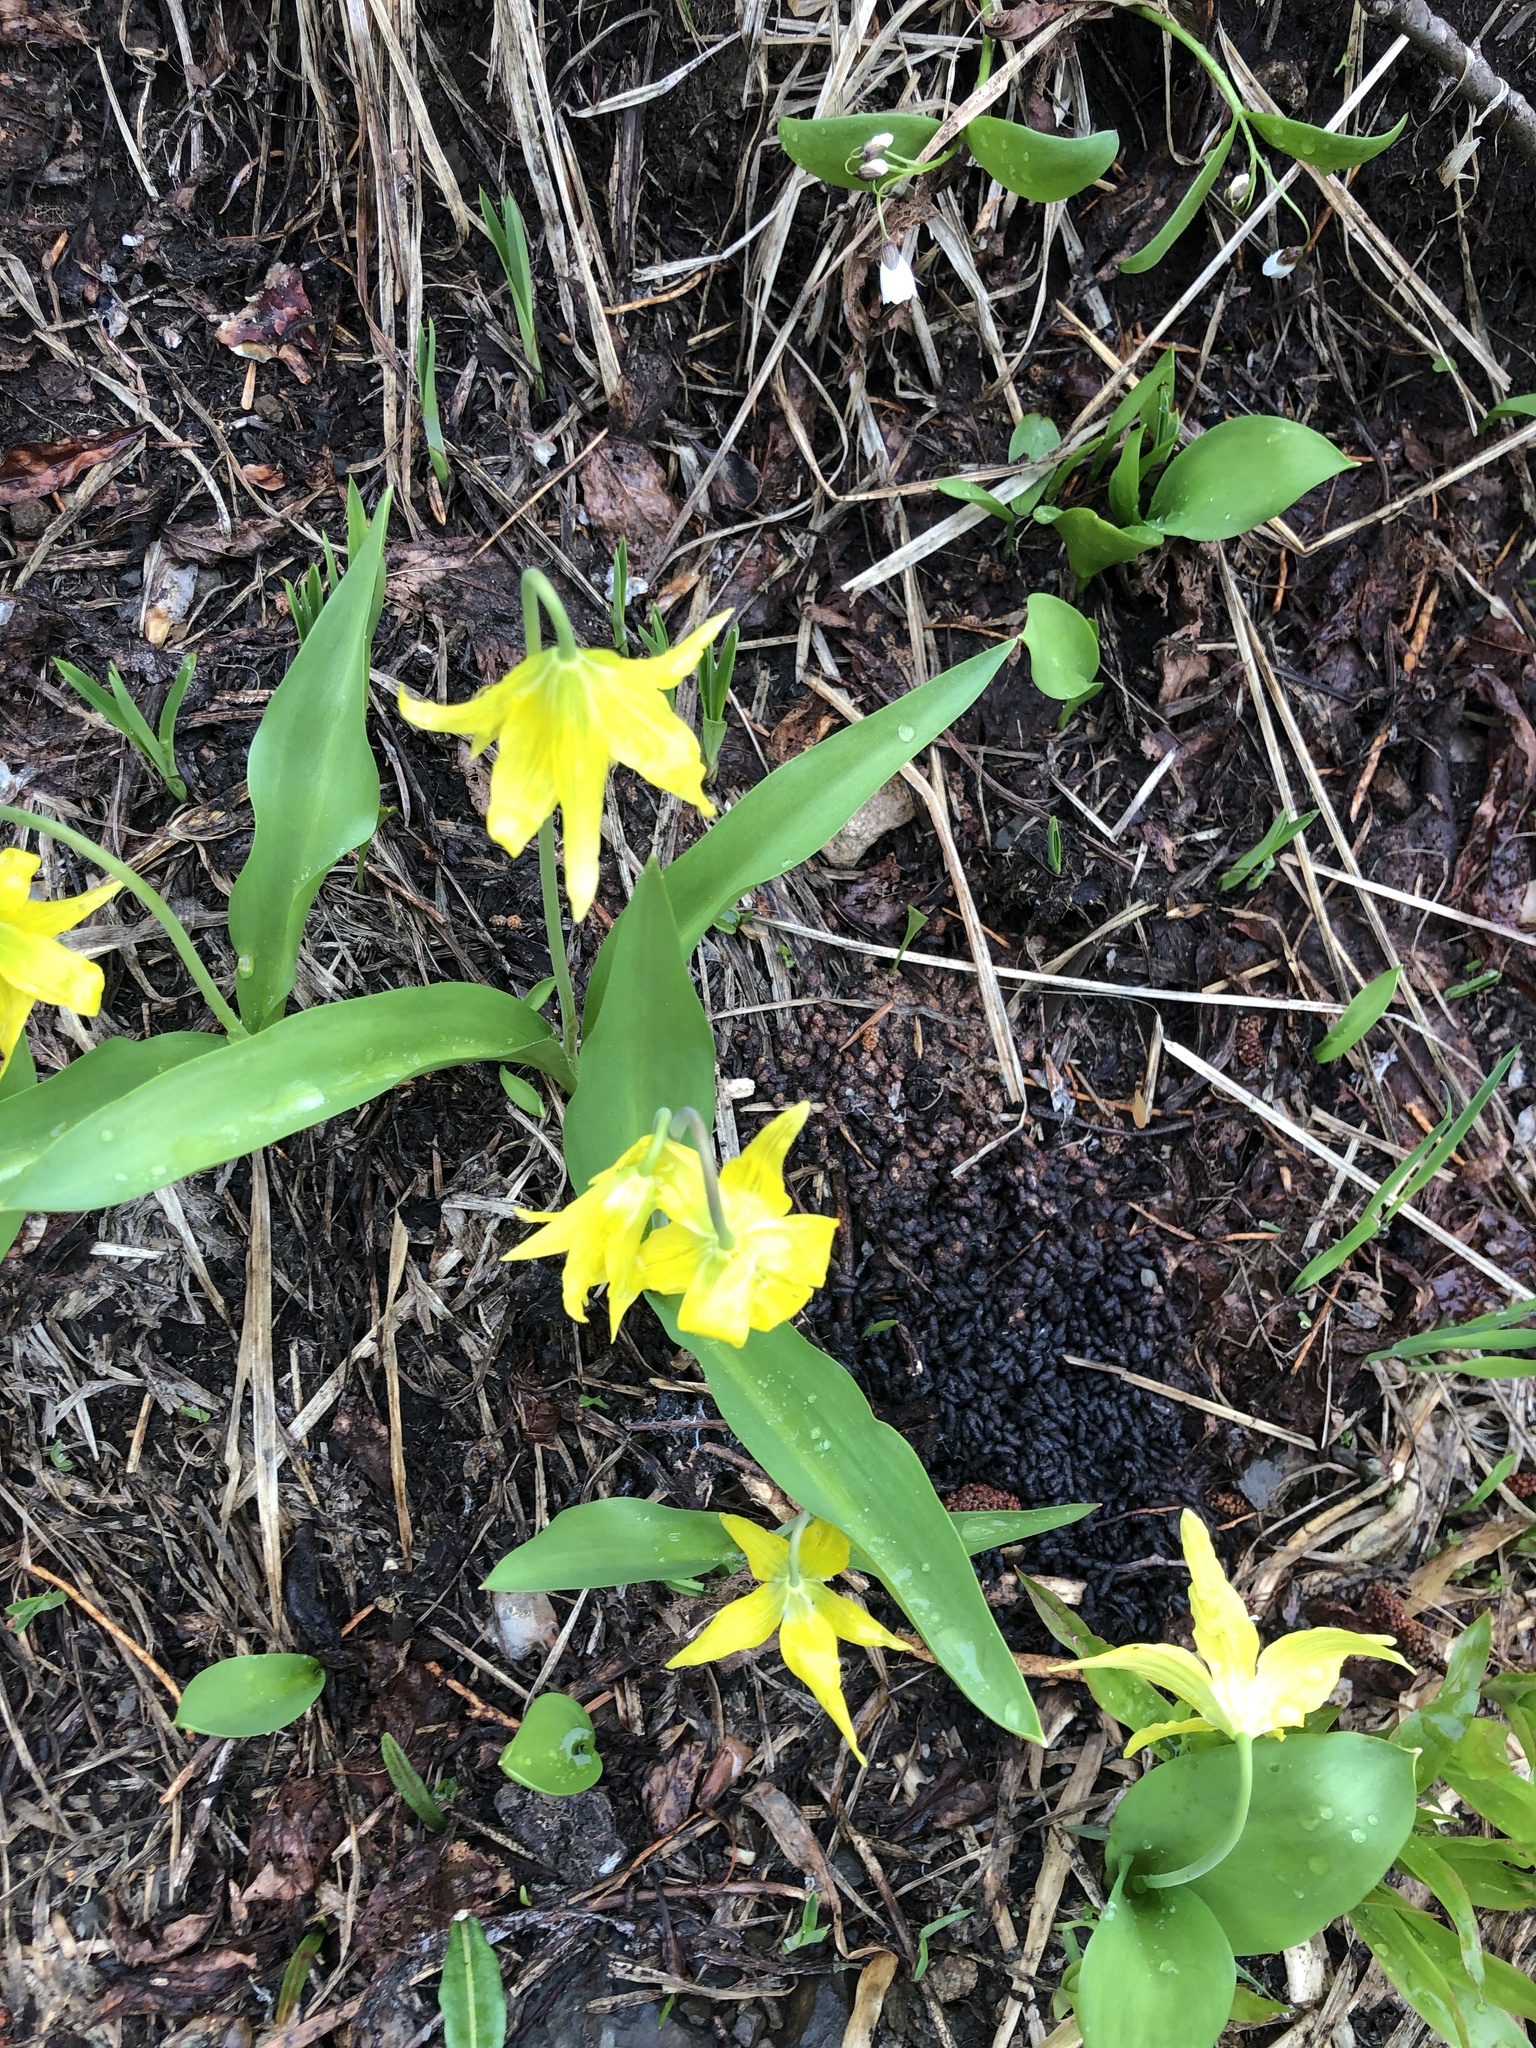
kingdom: Plantae
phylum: Tracheophyta
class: Liliopsida
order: Liliales
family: Liliaceae
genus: Erythronium
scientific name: Erythronium grandiflorum
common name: Avalanche-lily
